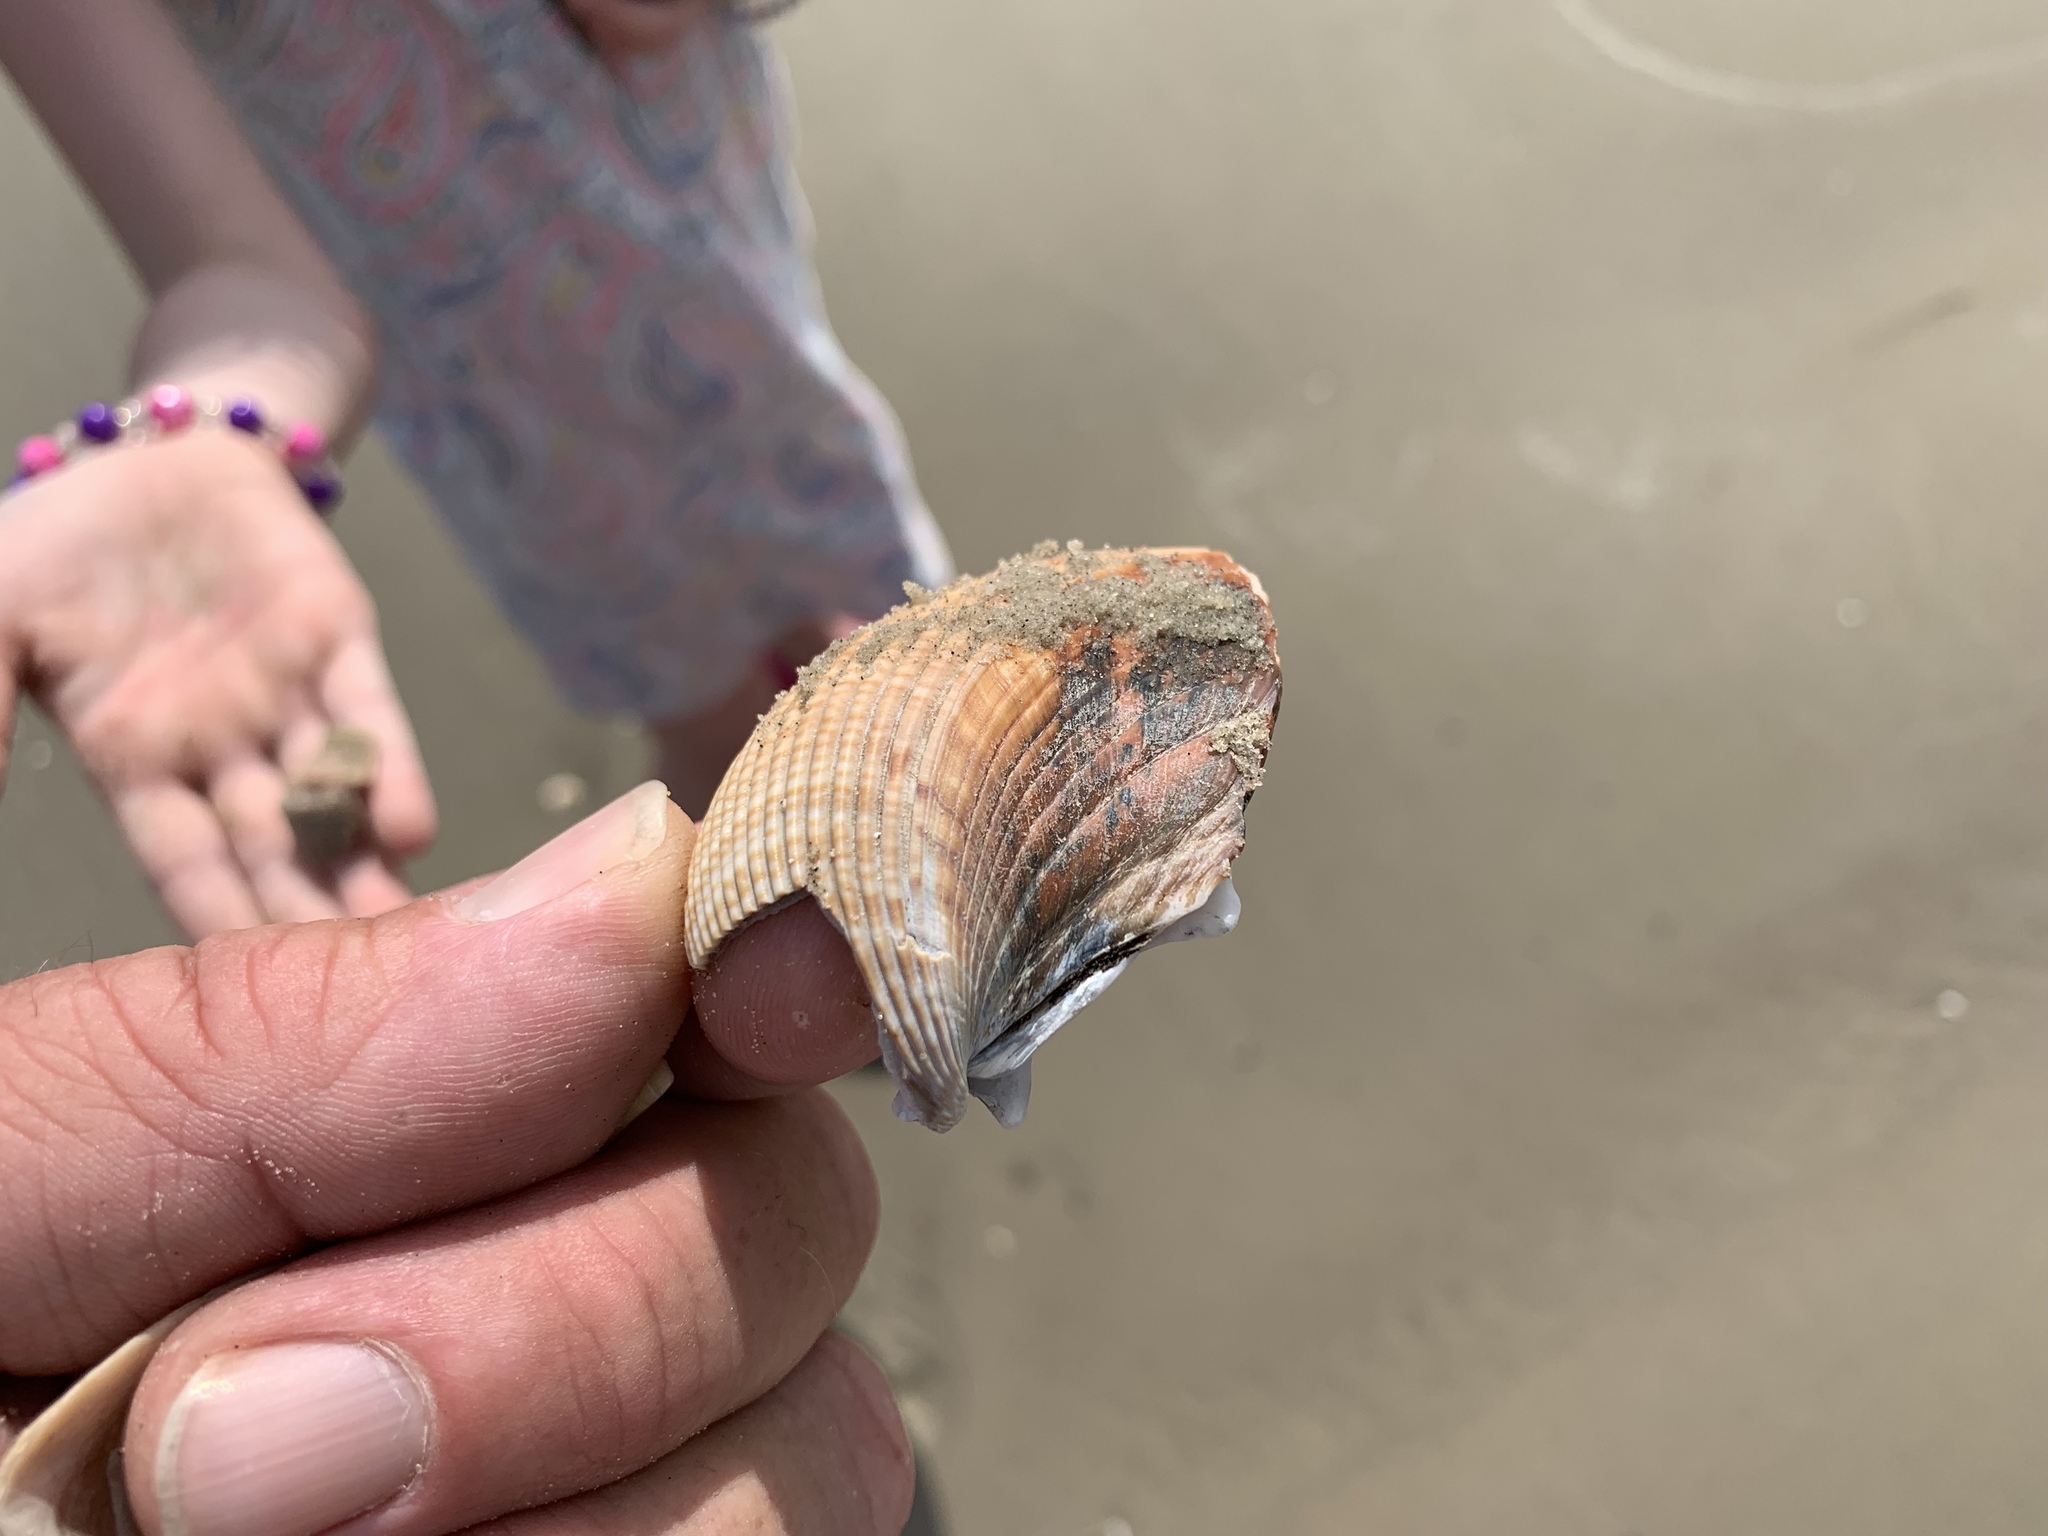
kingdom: Animalia
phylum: Mollusca
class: Bivalvia
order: Cardiida
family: Cardiidae
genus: Dinocardium
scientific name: Dinocardium robustum
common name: Atlantic giant cockle
